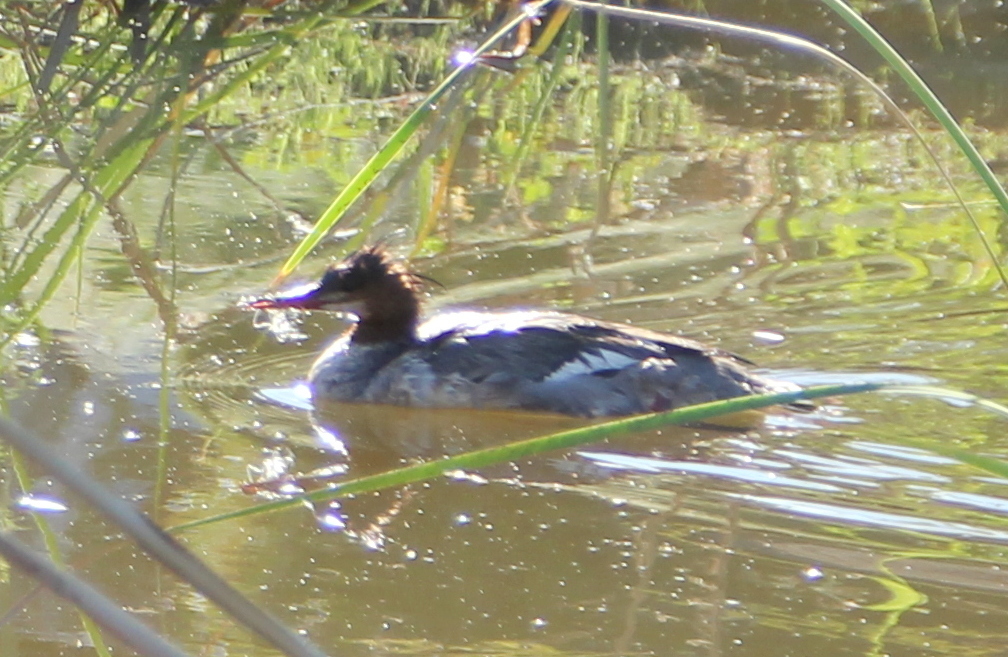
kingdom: Animalia
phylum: Chordata
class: Aves
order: Anseriformes
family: Anatidae
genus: Mergus
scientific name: Mergus merganser
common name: Common merganser
